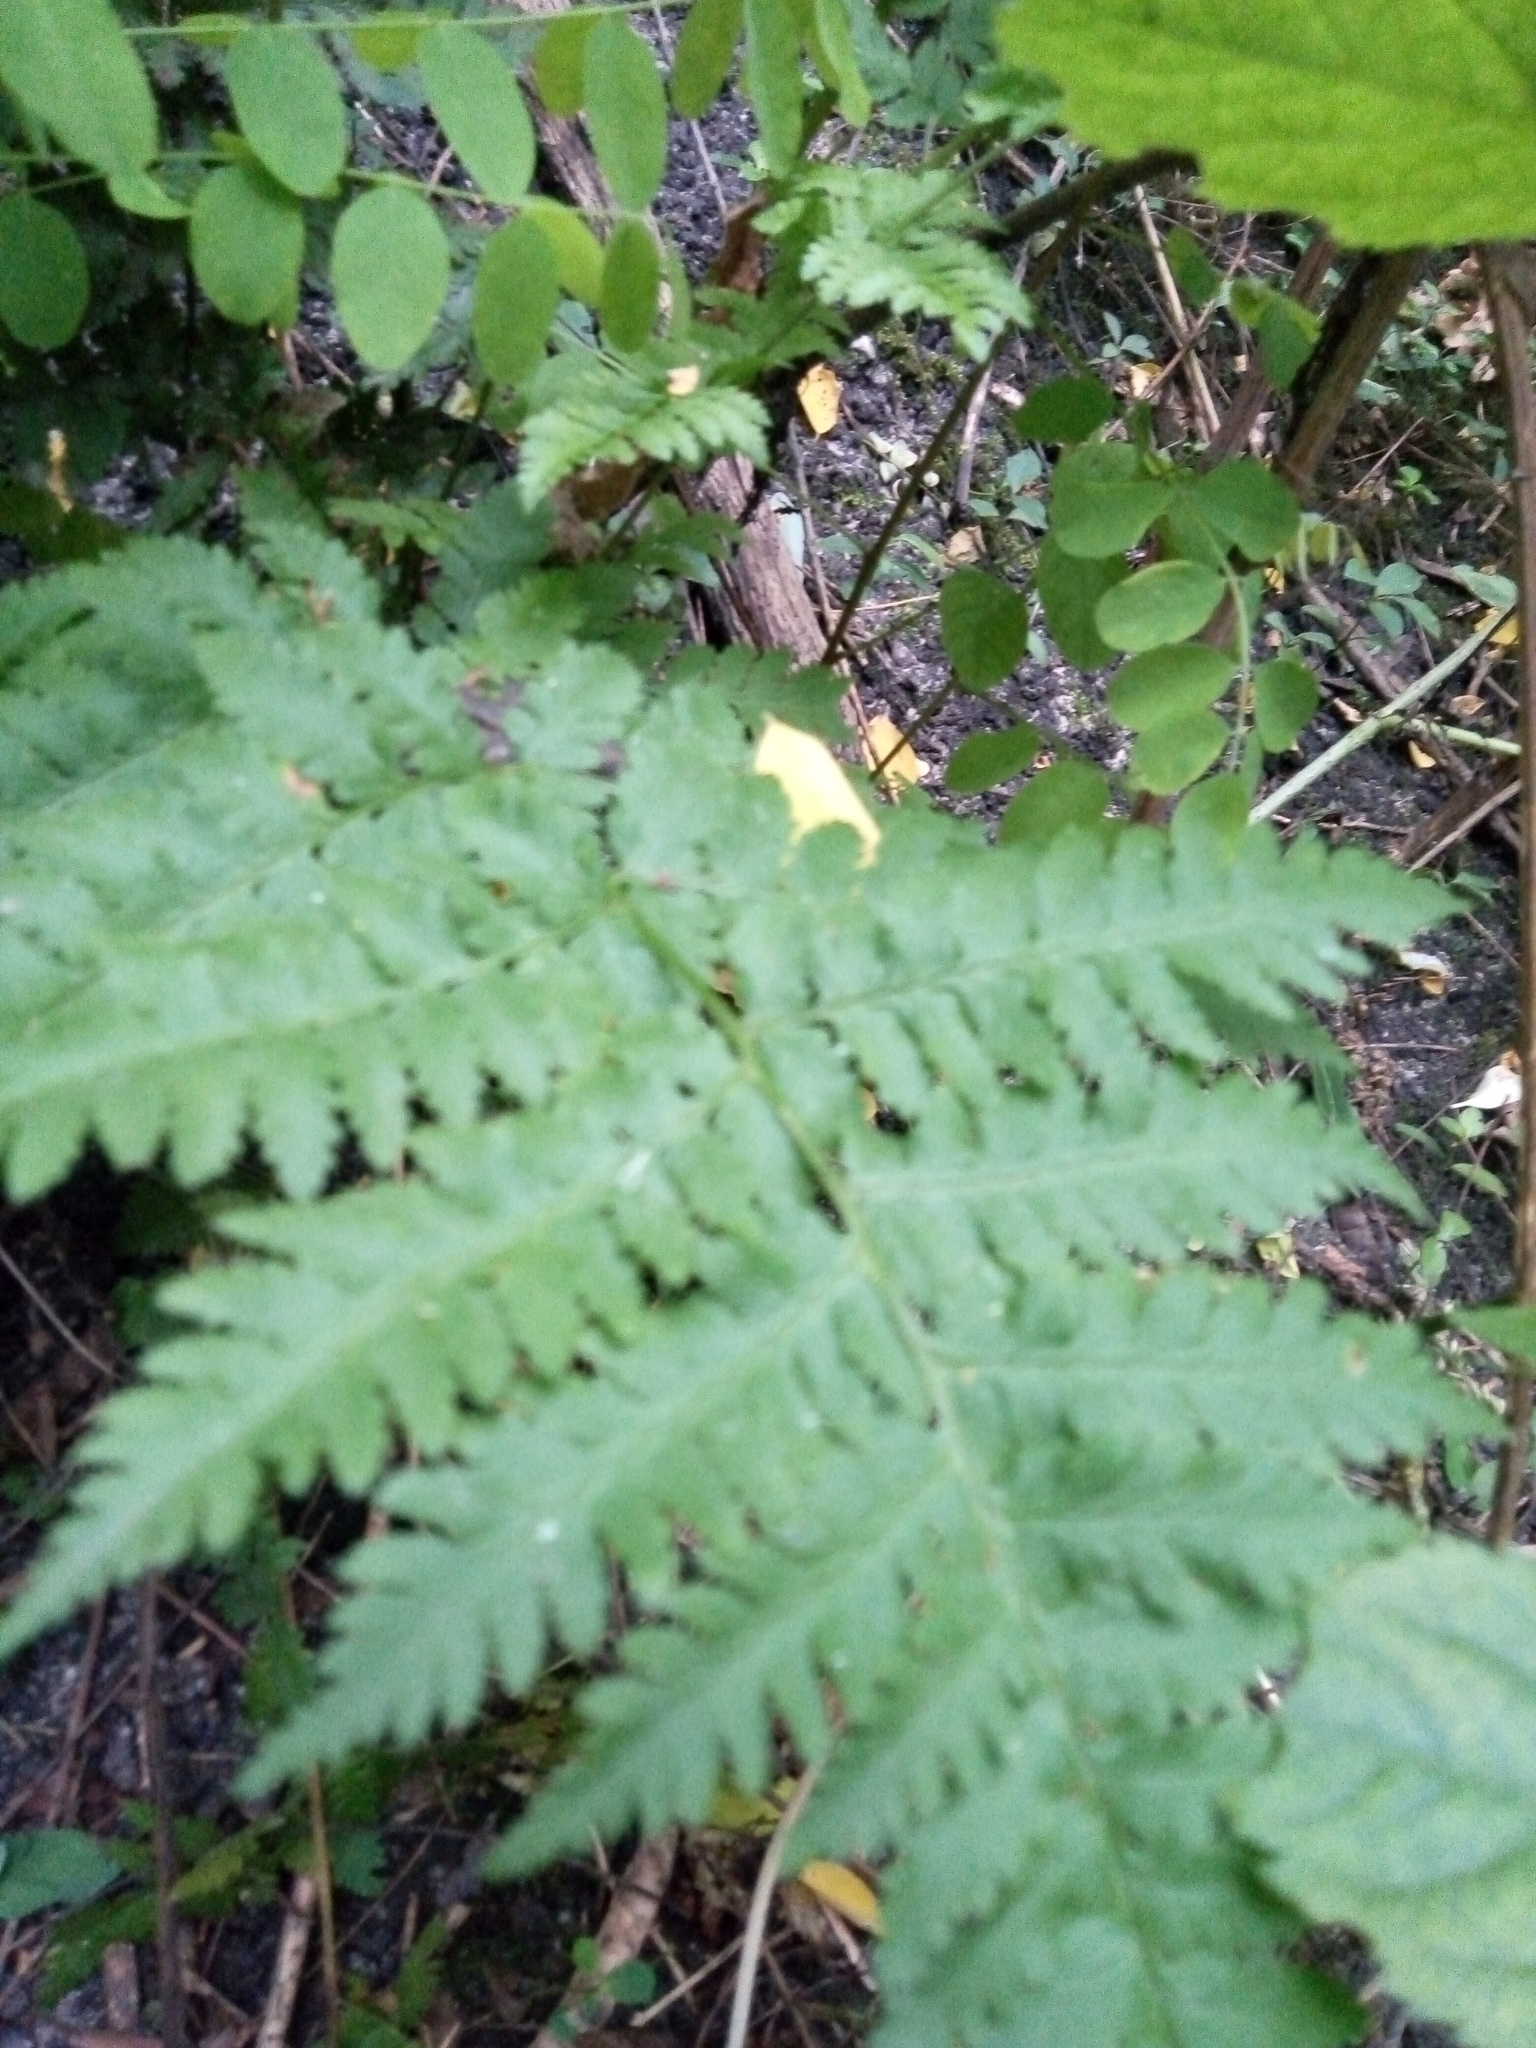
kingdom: Plantae
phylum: Tracheophyta
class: Polypodiopsida
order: Polypodiales
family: Dryopteridaceae
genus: Dryopteris
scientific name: Dryopteris carthusiana
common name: Narrow buckler-fern
